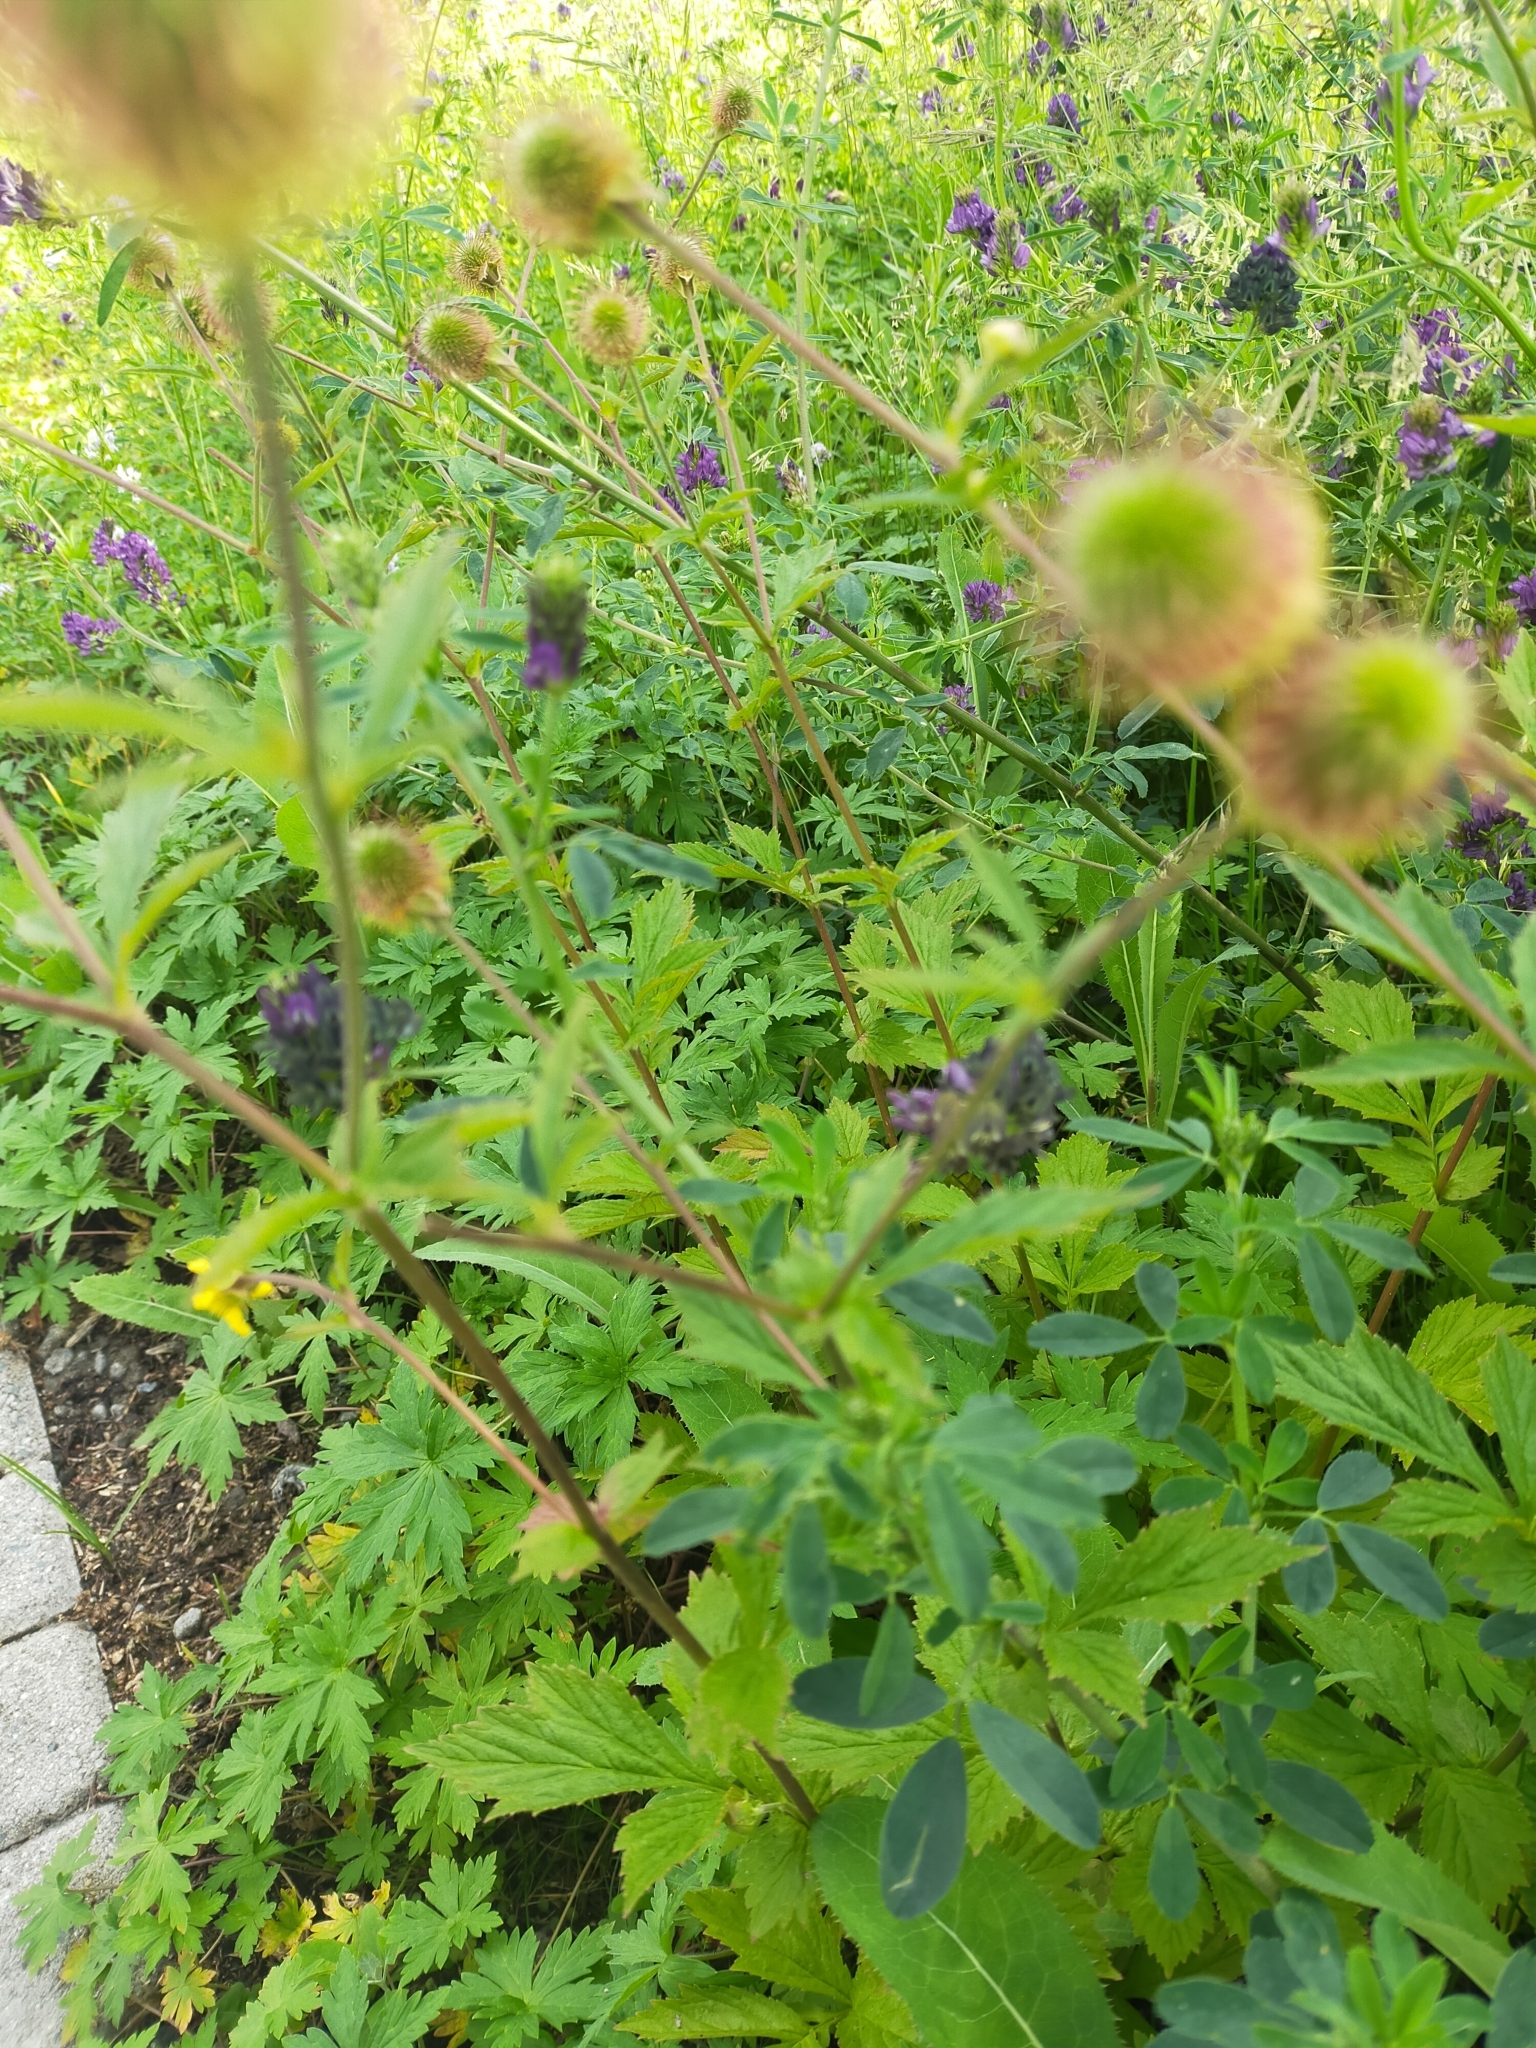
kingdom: Plantae
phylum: Tracheophyta
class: Magnoliopsida
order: Rosales
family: Rosaceae
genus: Geum
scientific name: Geum aleppicum
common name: Yellow avens
